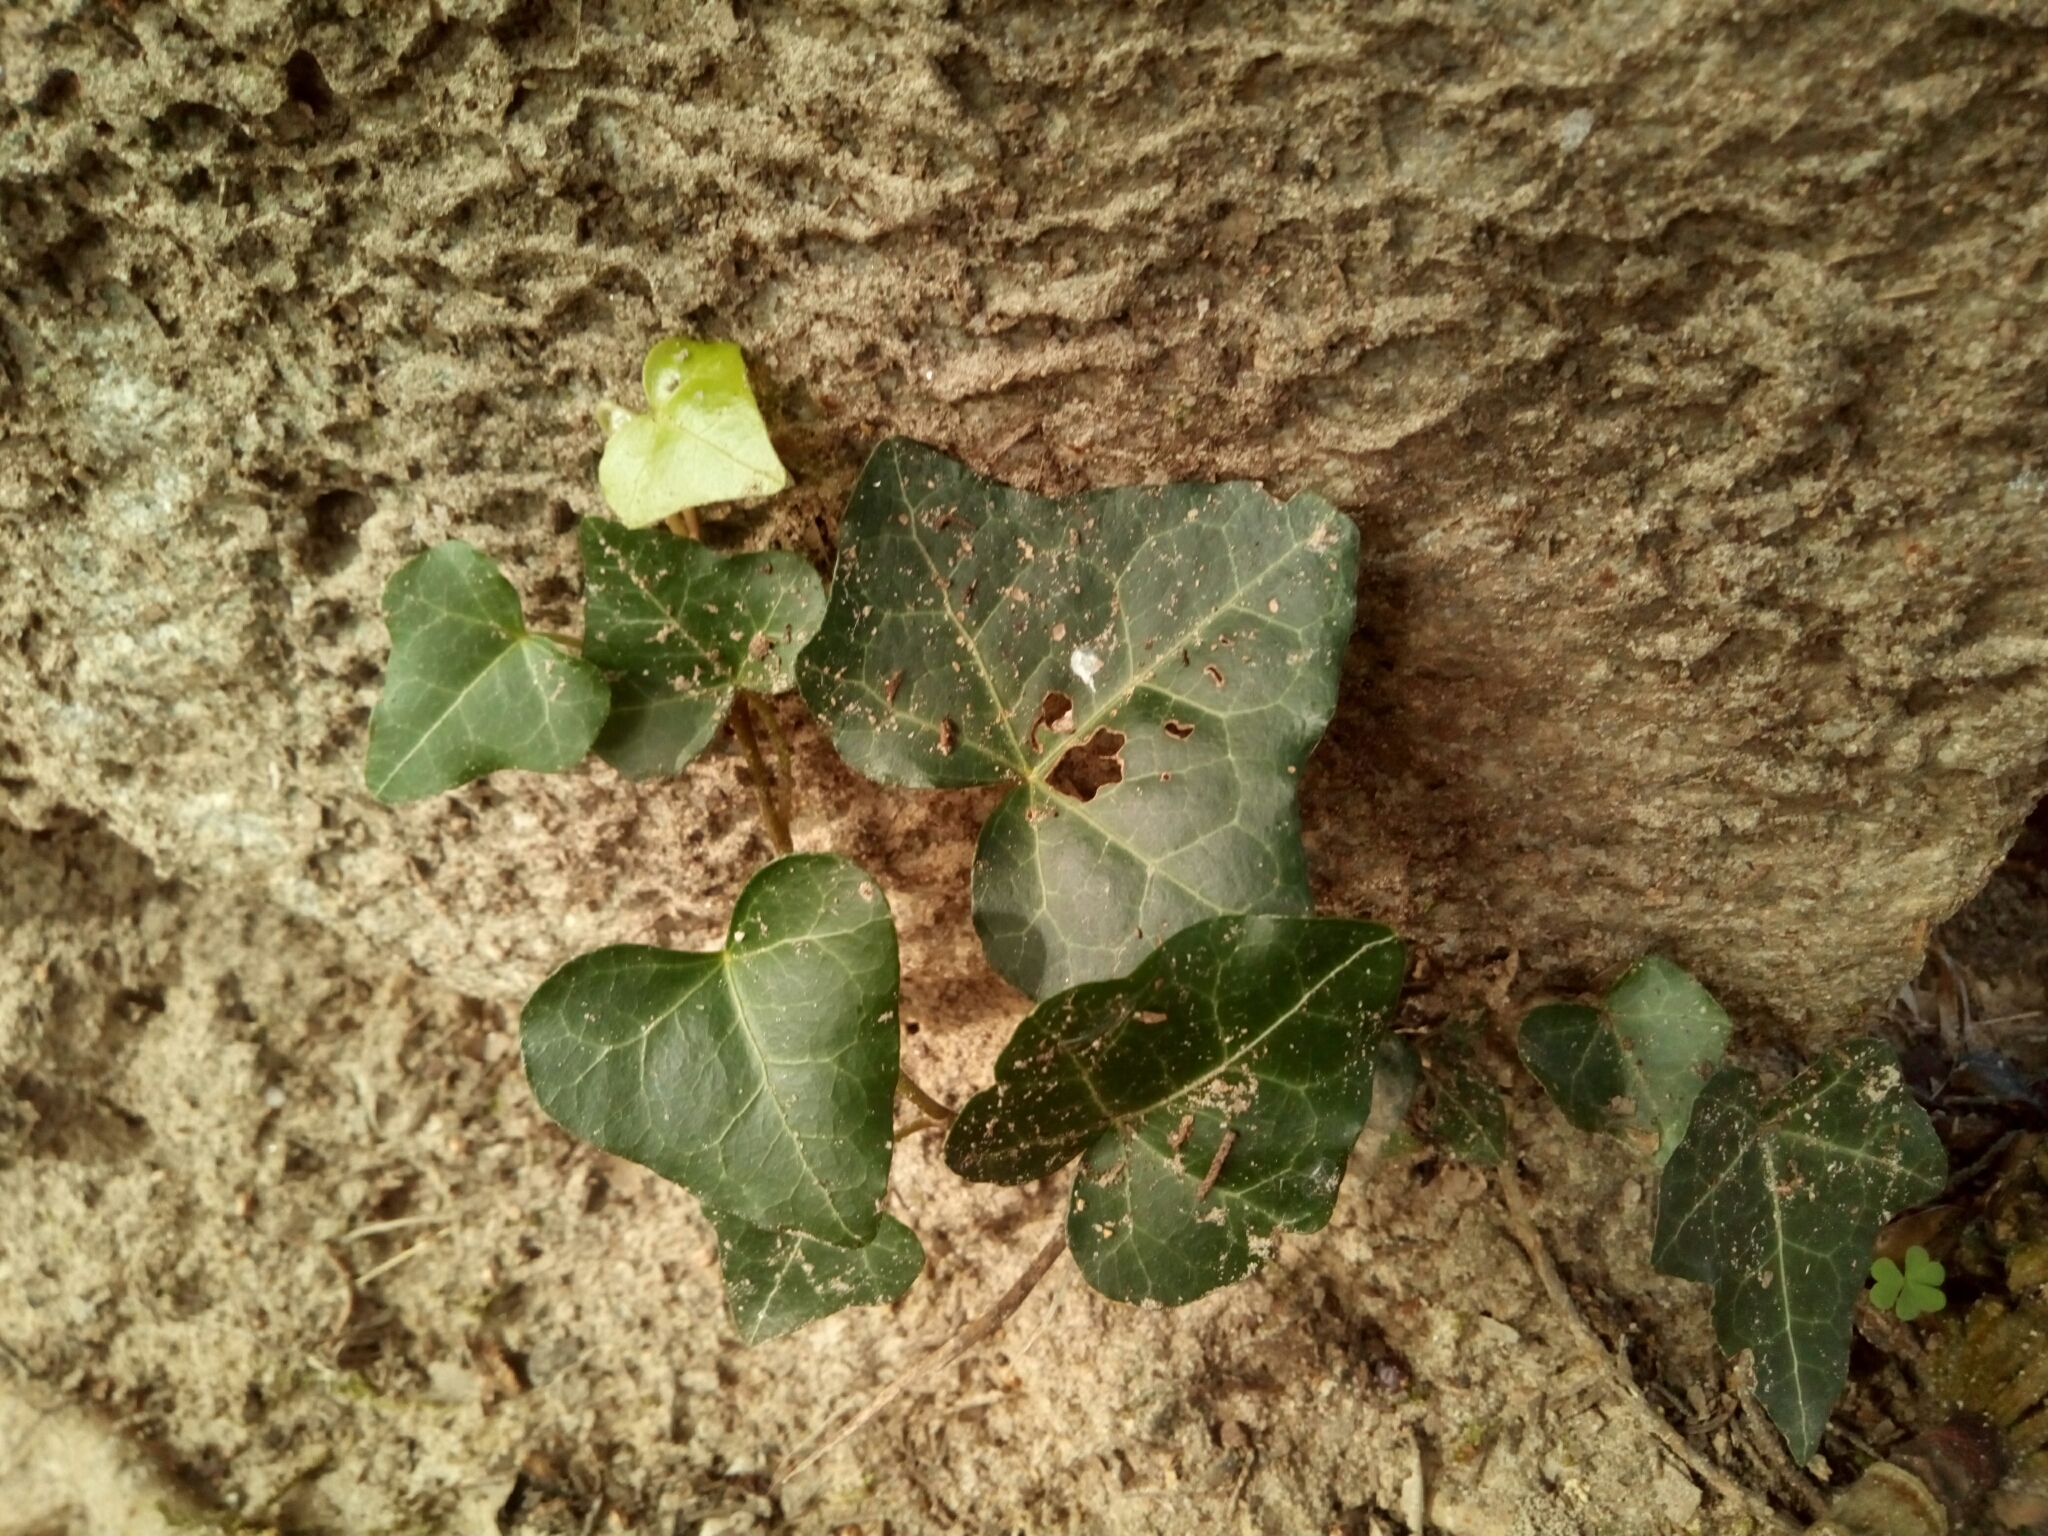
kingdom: Plantae
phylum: Tracheophyta
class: Magnoliopsida
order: Apiales
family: Araliaceae
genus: Hedera
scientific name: Hedera helix
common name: Ivy
